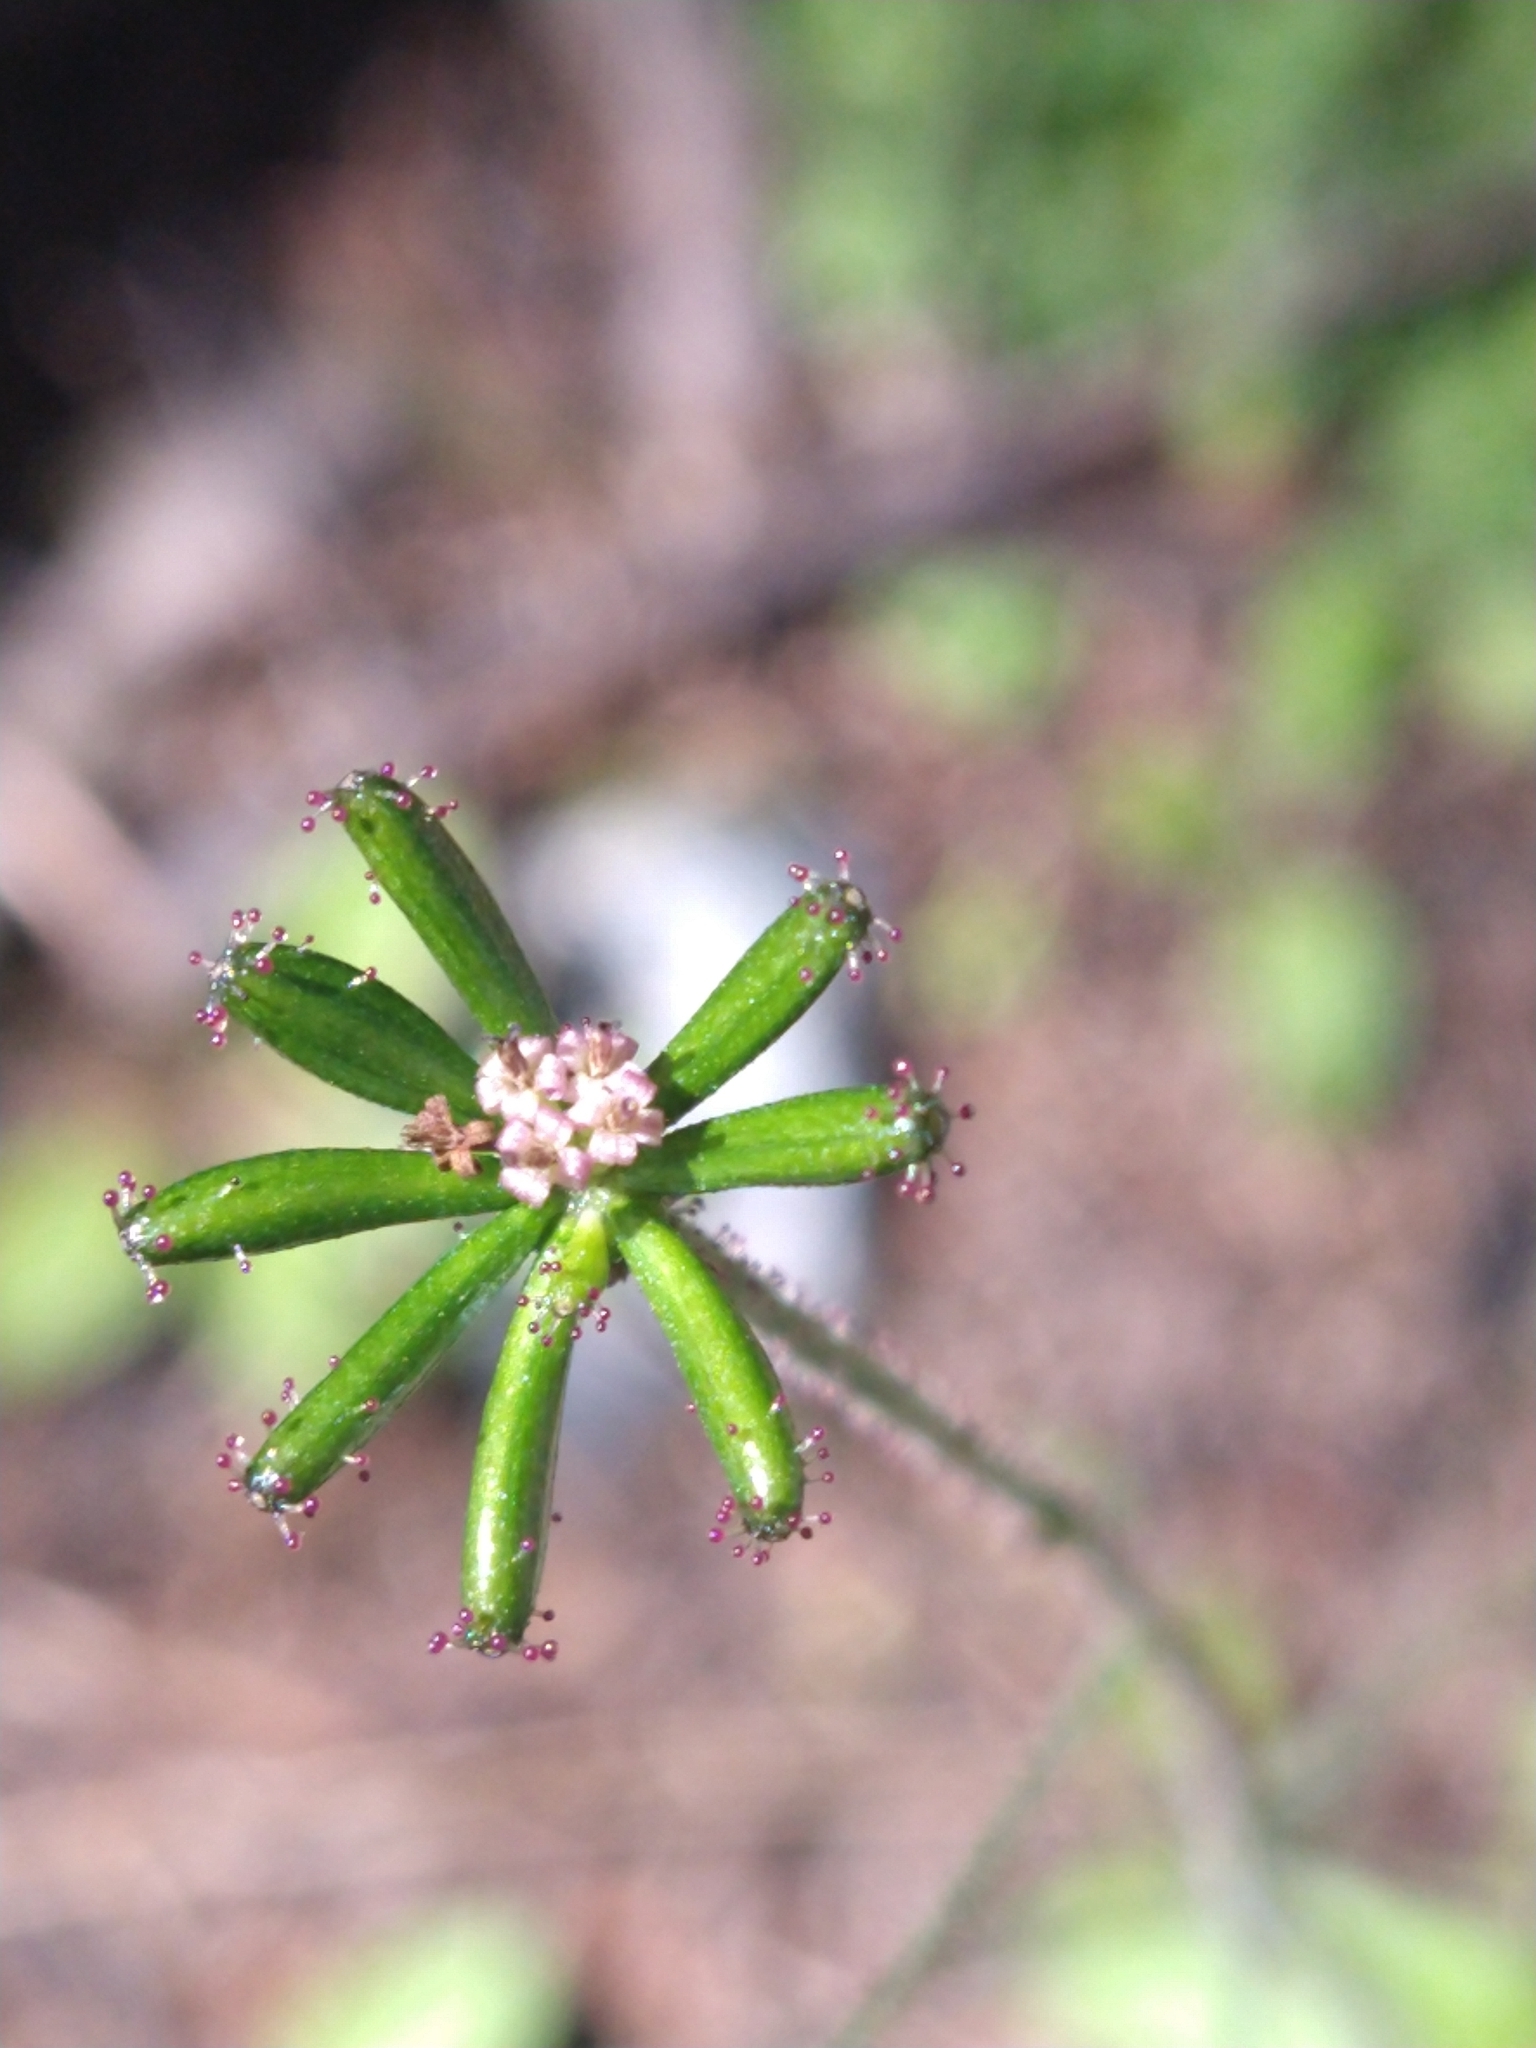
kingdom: Plantae
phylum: Tracheophyta
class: Magnoliopsida
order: Asterales
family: Asteraceae
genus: Adenocaulon
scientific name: Adenocaulon chilense
